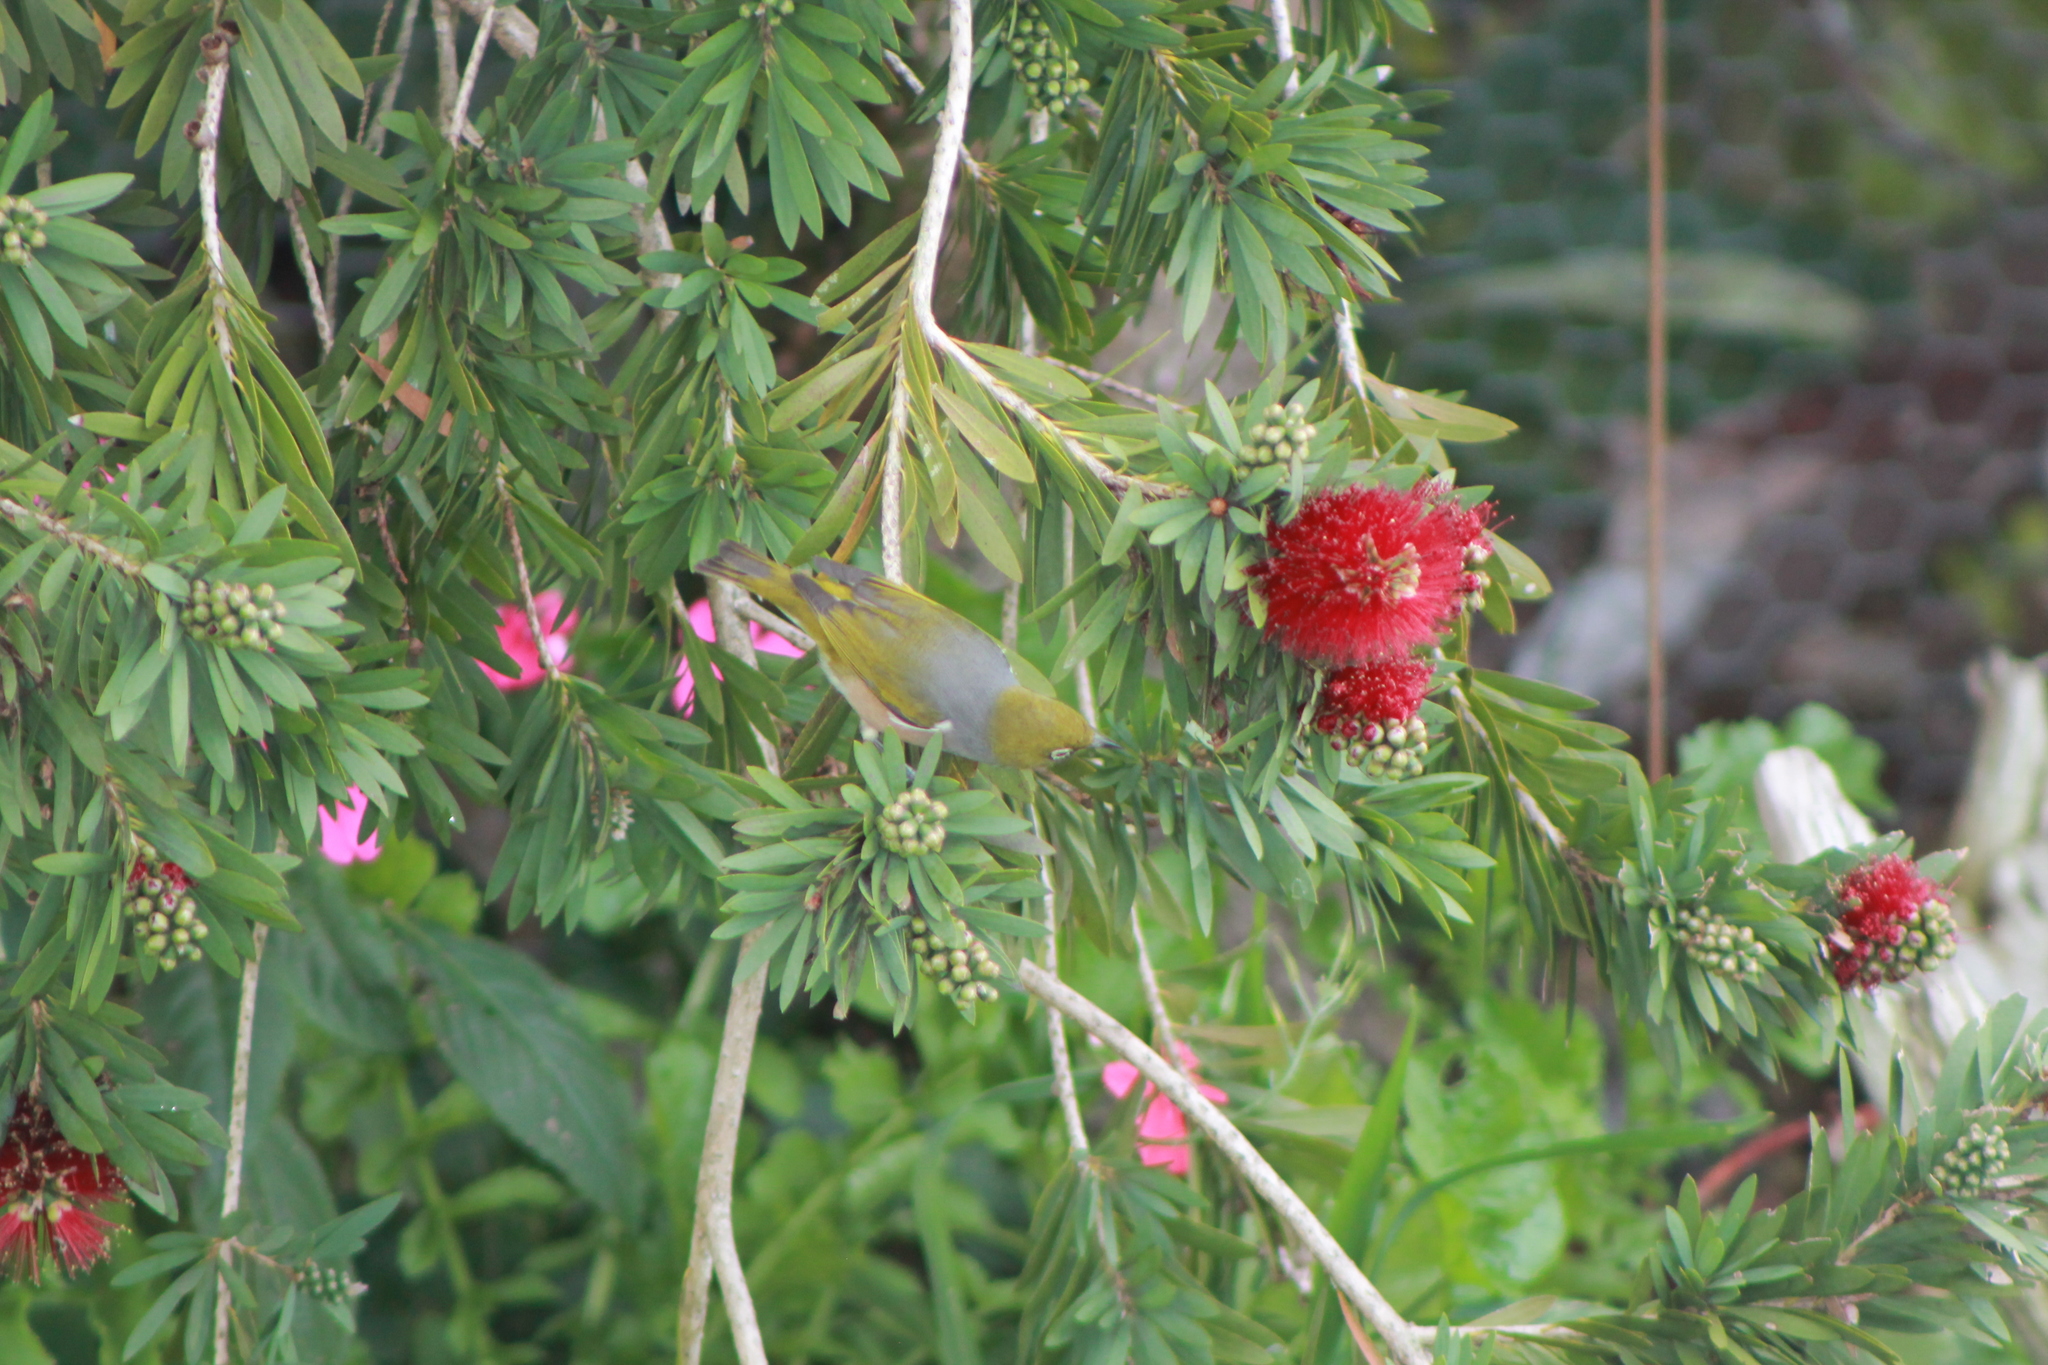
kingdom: Animalia
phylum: Chordata
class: Aves
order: Passeriformes
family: Zosteropidae
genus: Zosterops
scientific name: Zosterops lateralis
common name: Silvereye
